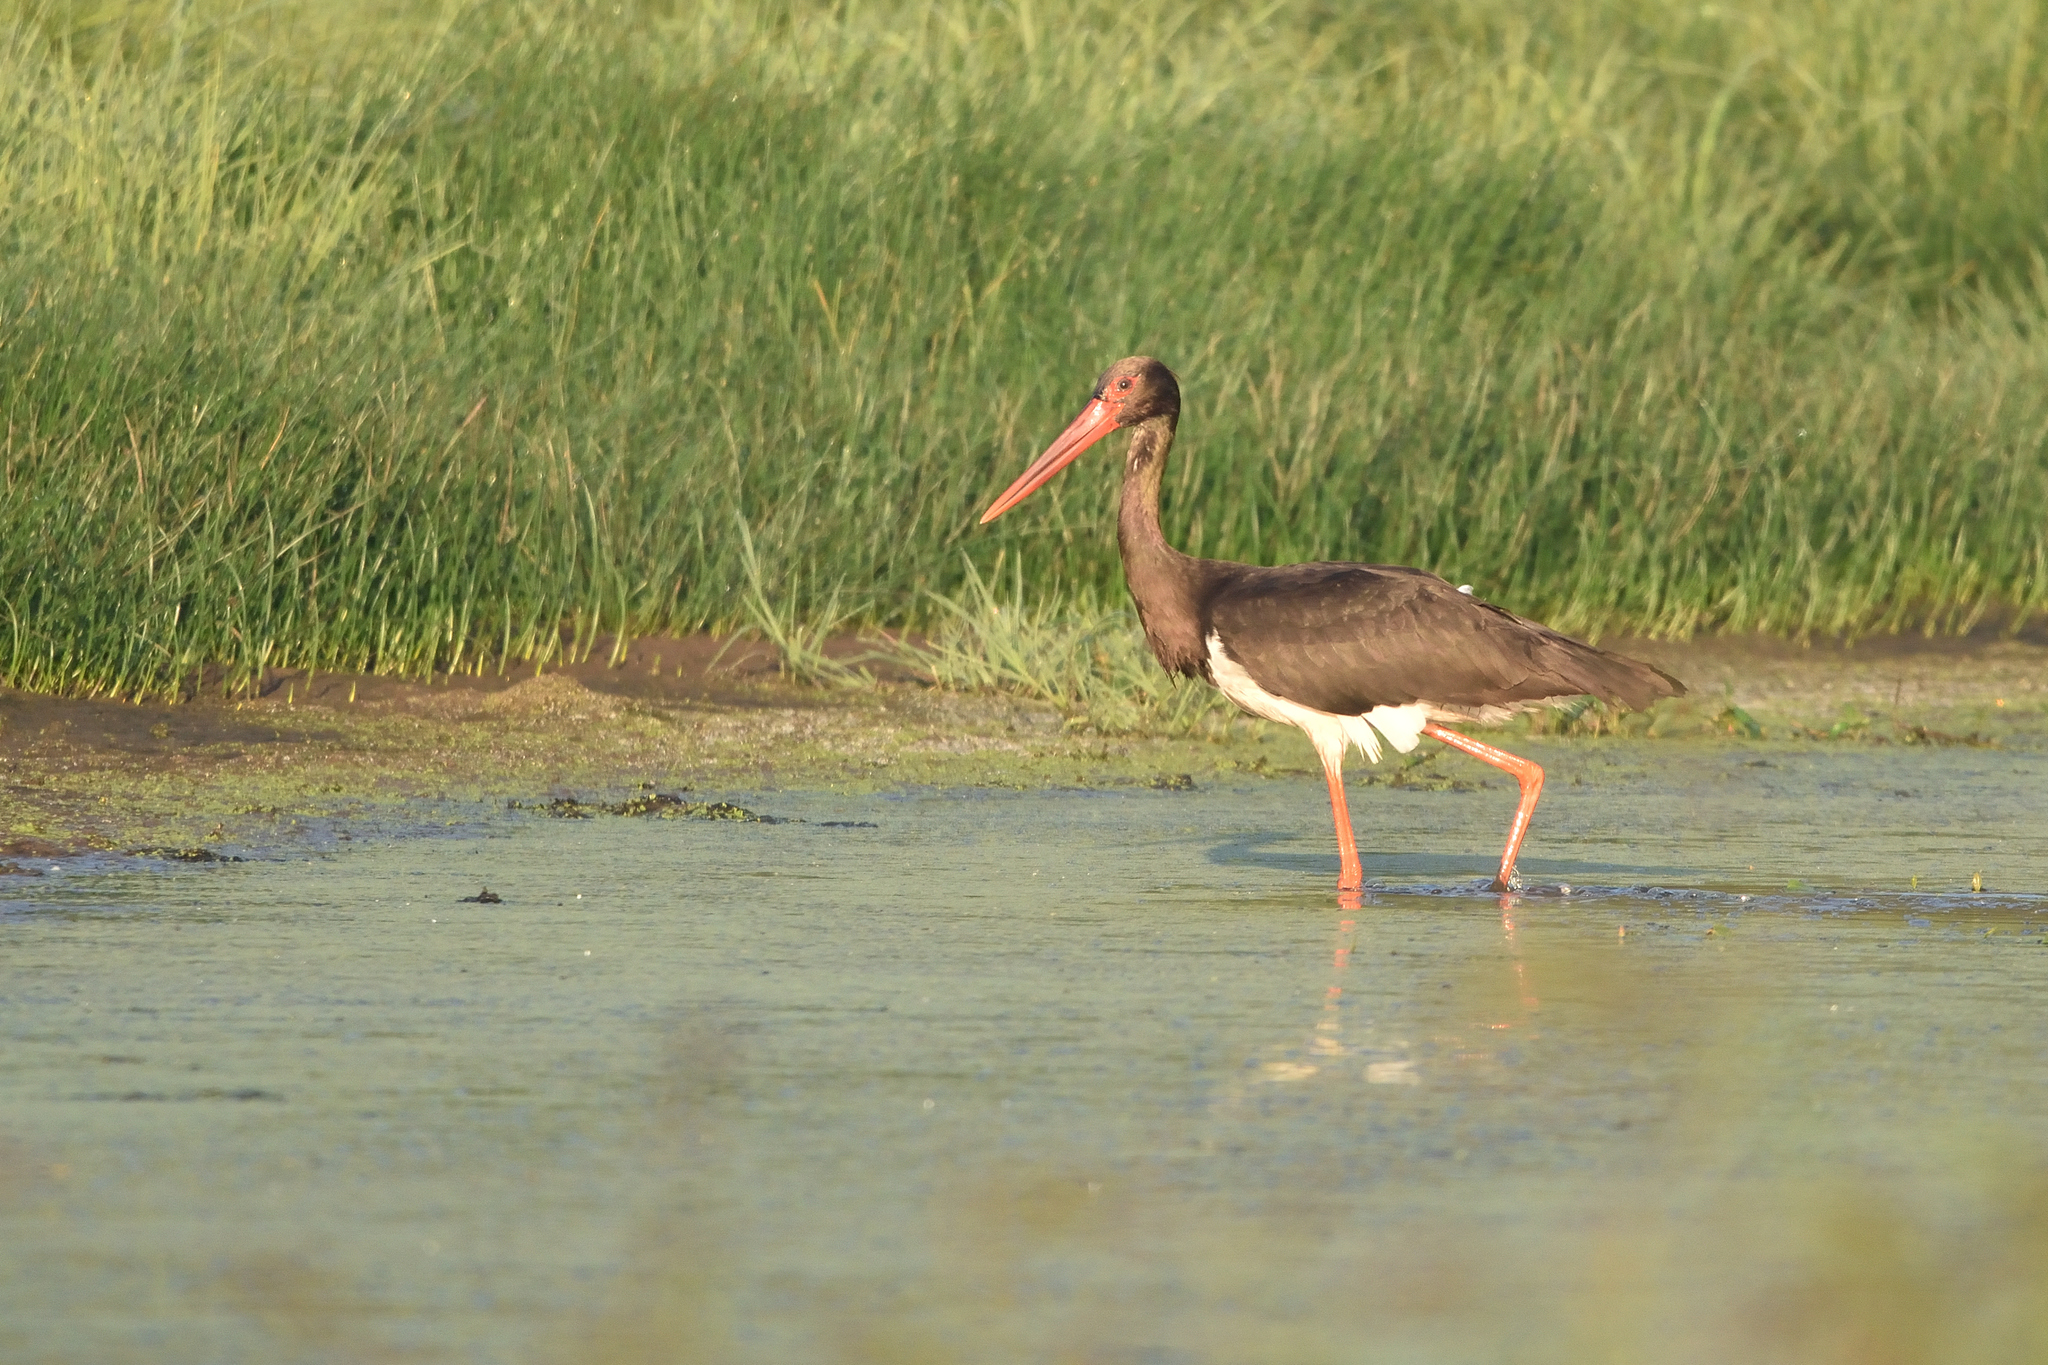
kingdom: Animalia
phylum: Chordata
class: Aves
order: Ciconiiformes
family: Ciconiidae
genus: Ciconia
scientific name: Ciconia nigra
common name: Black stork
